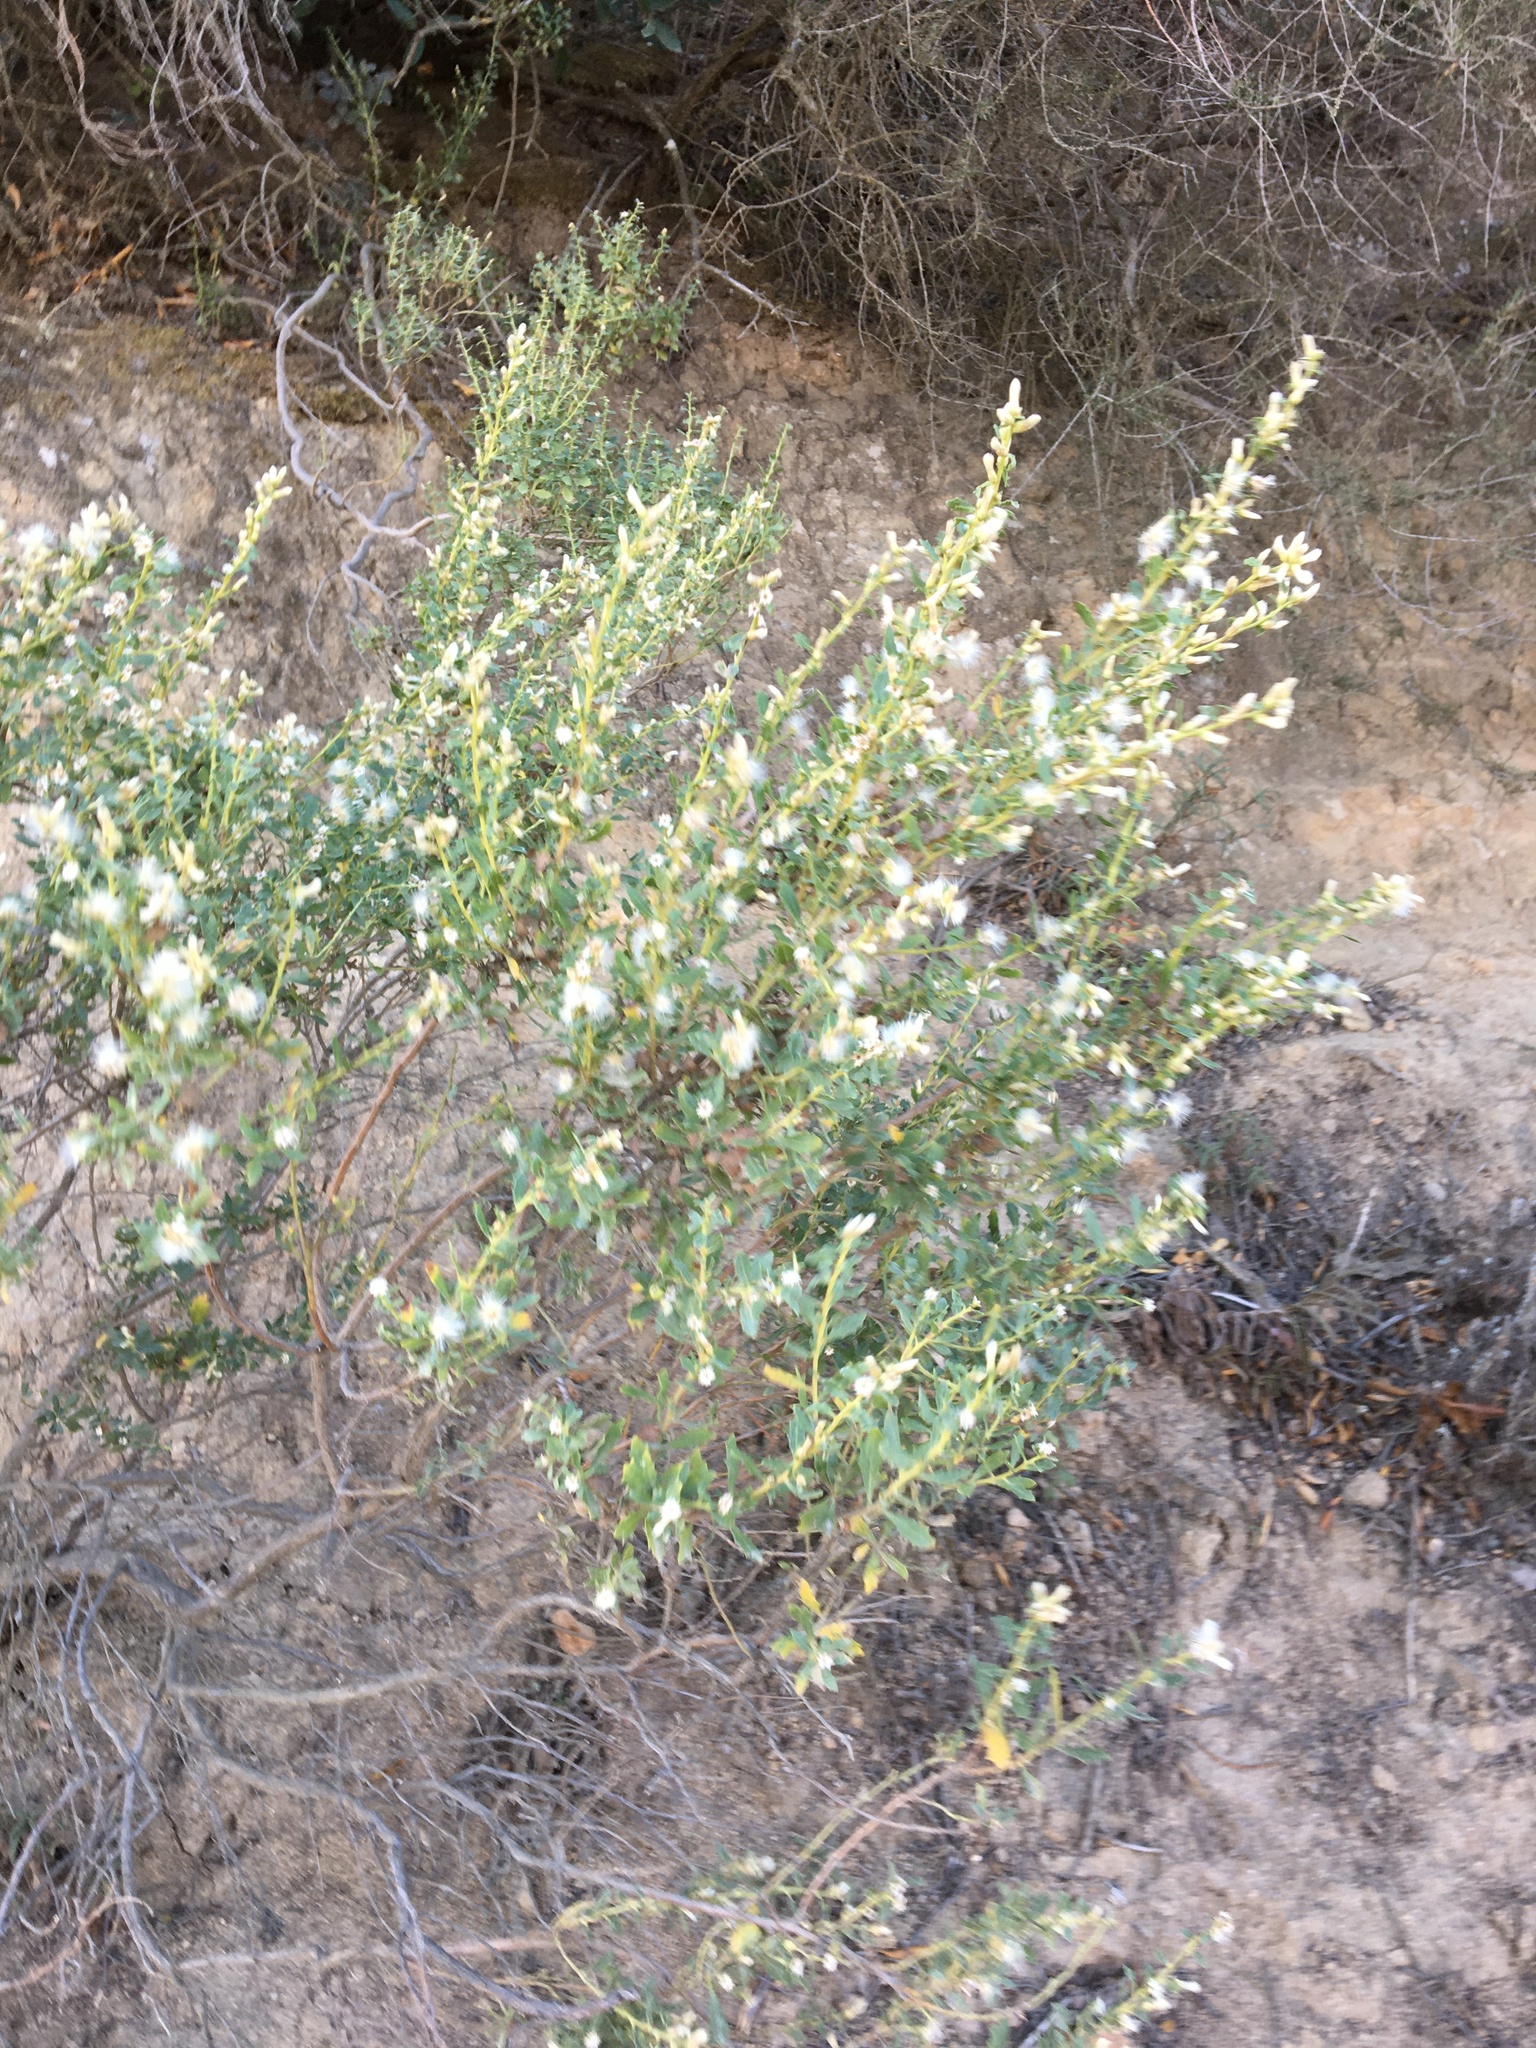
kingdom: Plantae
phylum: Tracheophyta
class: Magnoliopsida
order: Asterales
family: Asteraceae
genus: Baccharis
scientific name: Baccharis pilularis
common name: Coyotebrush
